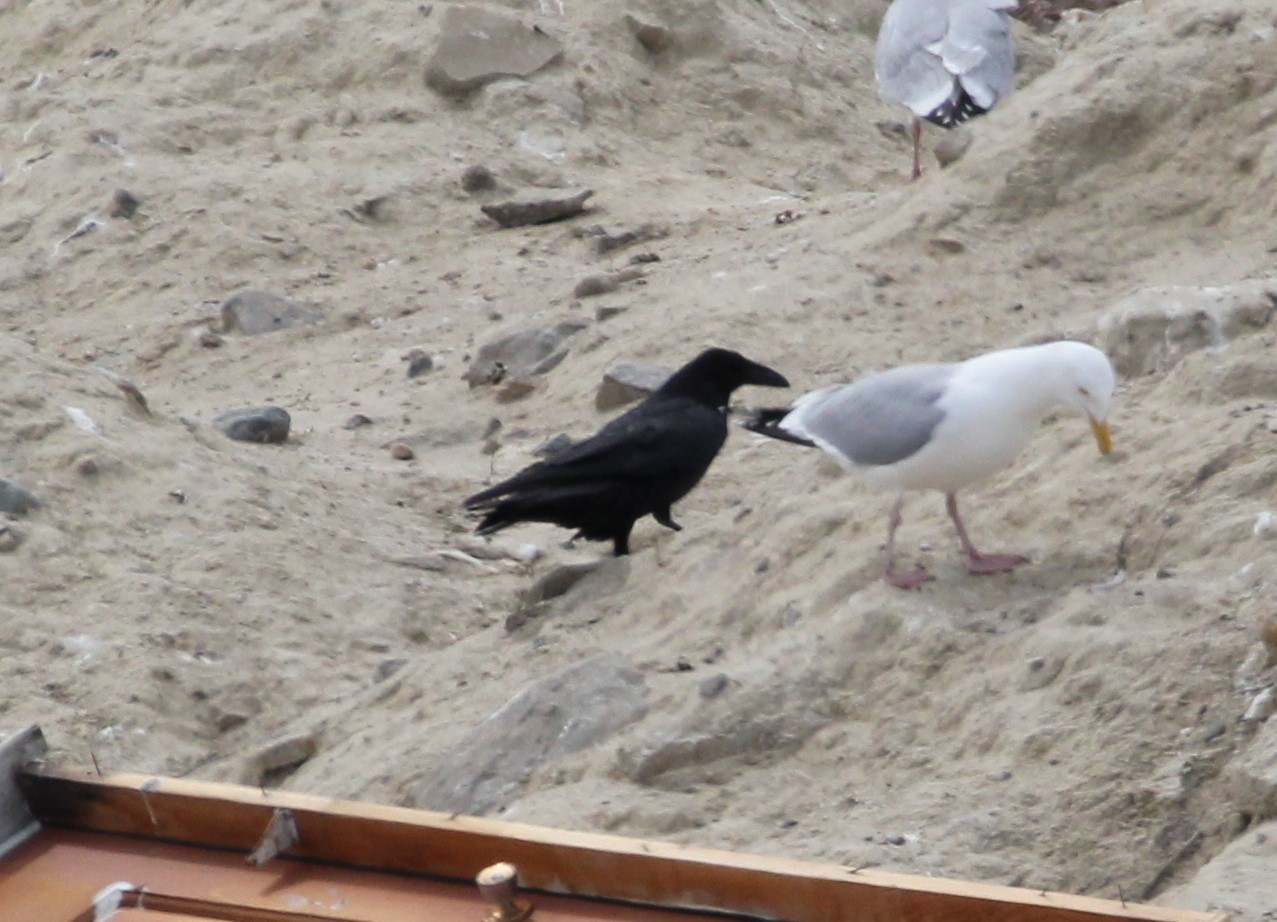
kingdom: Animalia
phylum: Chordata
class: Aves
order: Passeriformes
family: Corvidae
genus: Corvus
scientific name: Corvus corax
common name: Common raven
